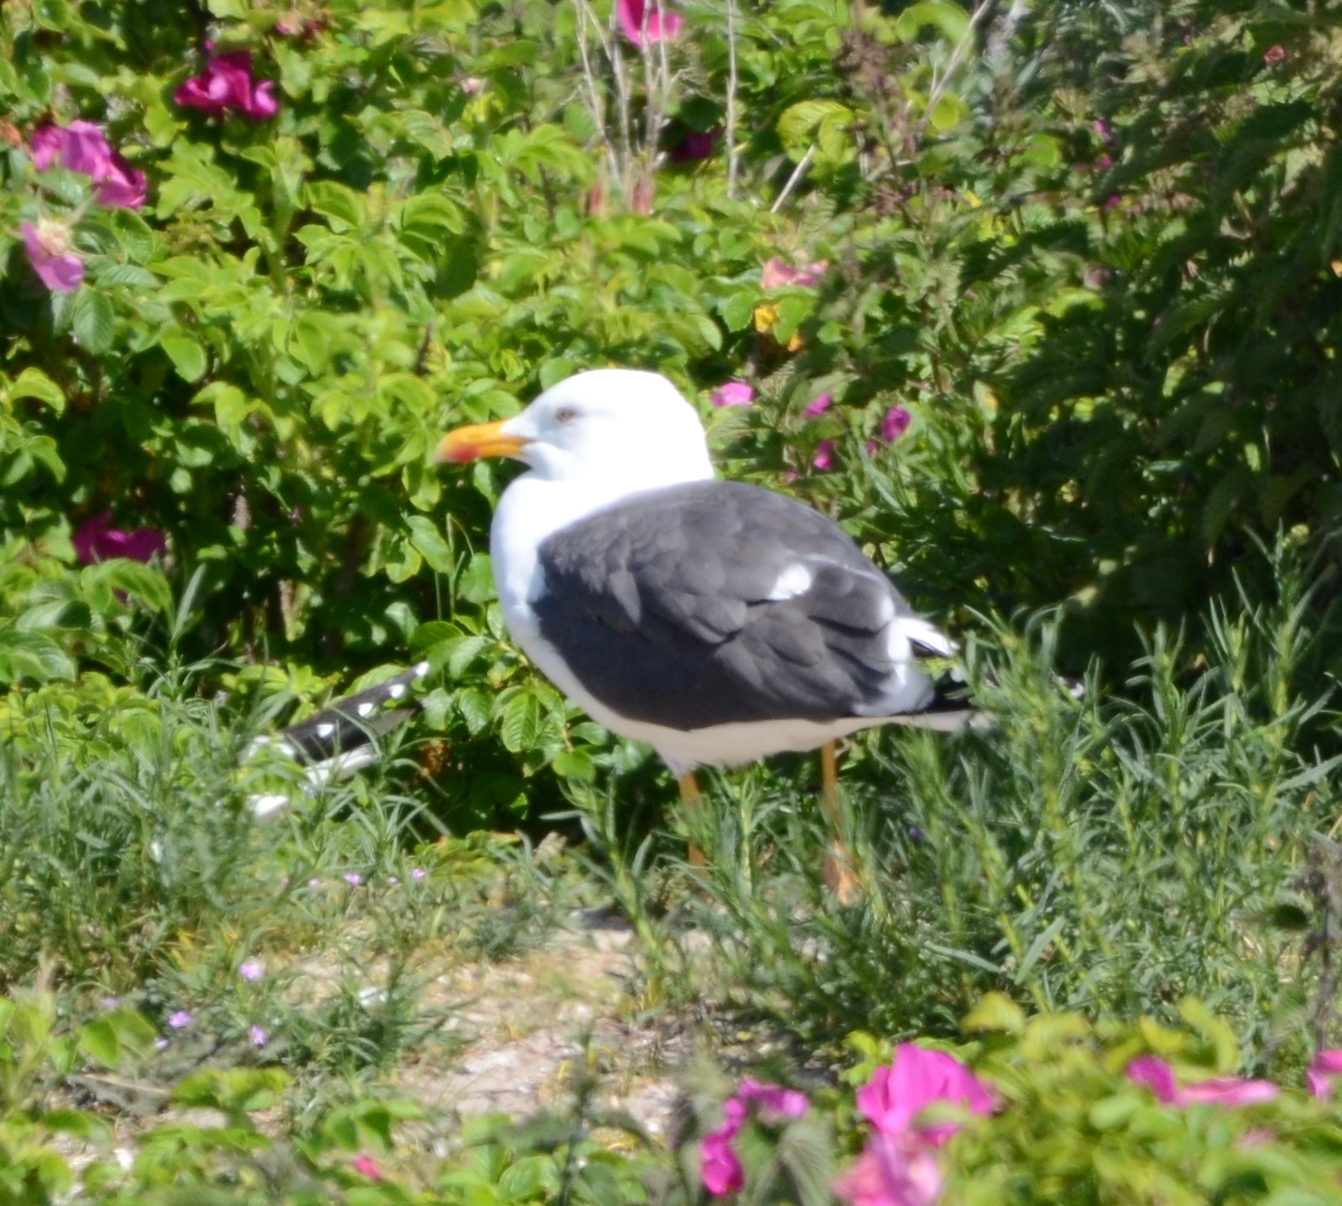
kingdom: Animalia
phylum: Chordata
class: Aves
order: Charadriiformes
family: Laridae
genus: Larus
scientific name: Larus fuscus
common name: Lesser black-backed gull
